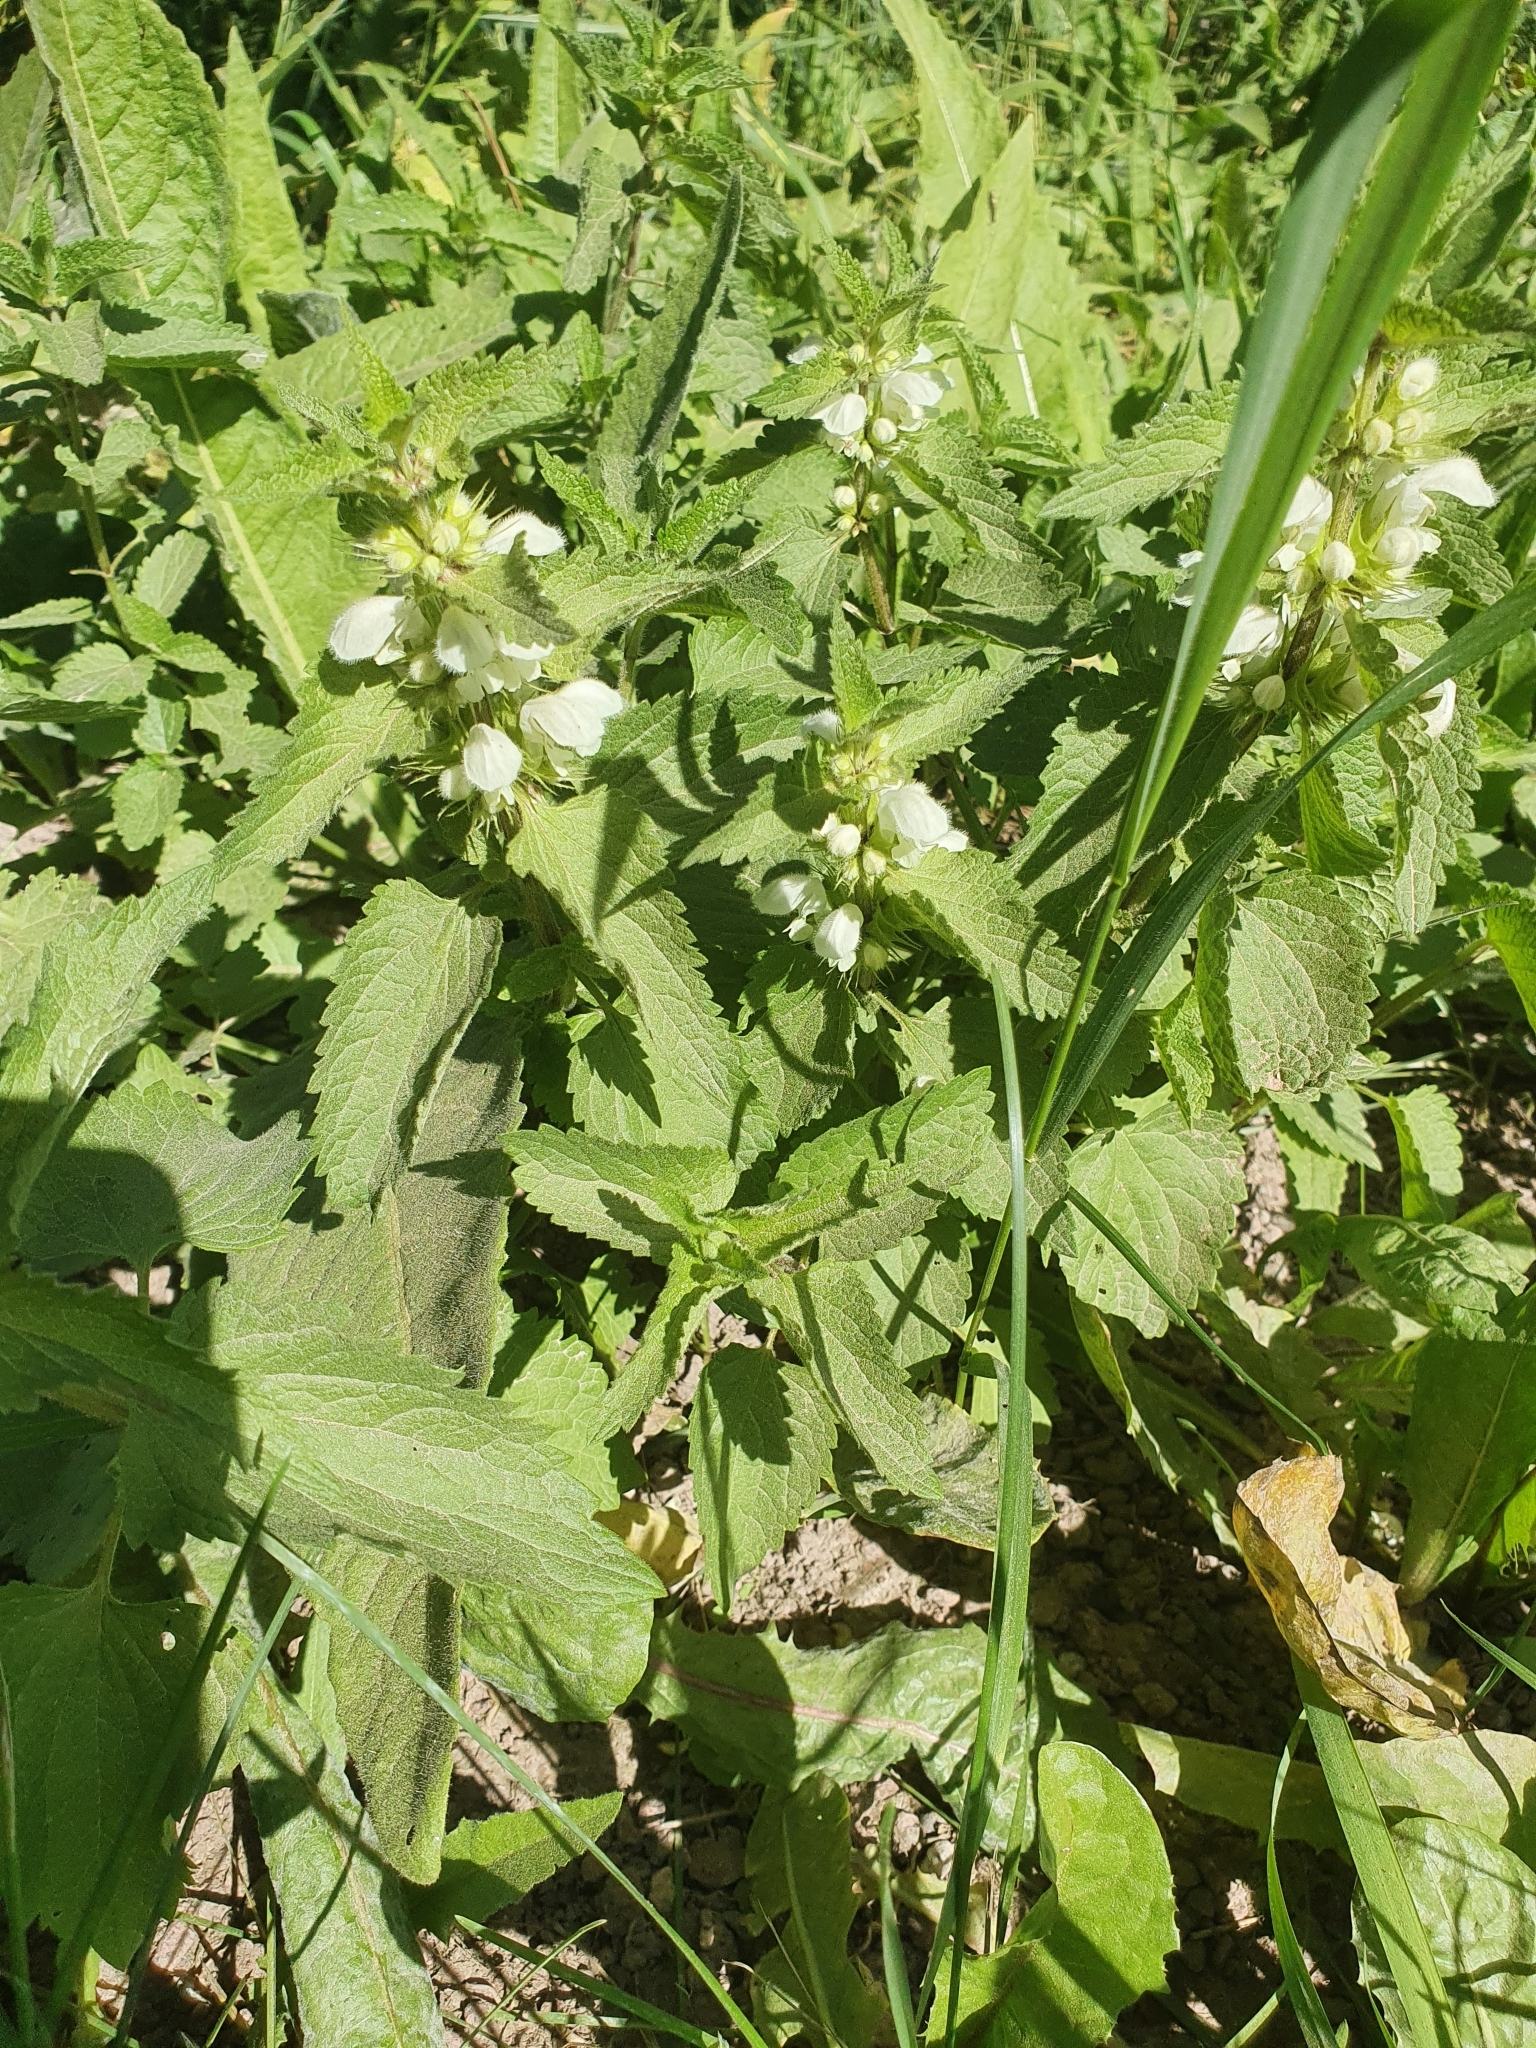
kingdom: Plantae
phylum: Tracheophyta
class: Magnoliopsida
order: Lamiales
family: Lamiaceae
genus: Lamium
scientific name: Lamium album
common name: White dead-nettle
